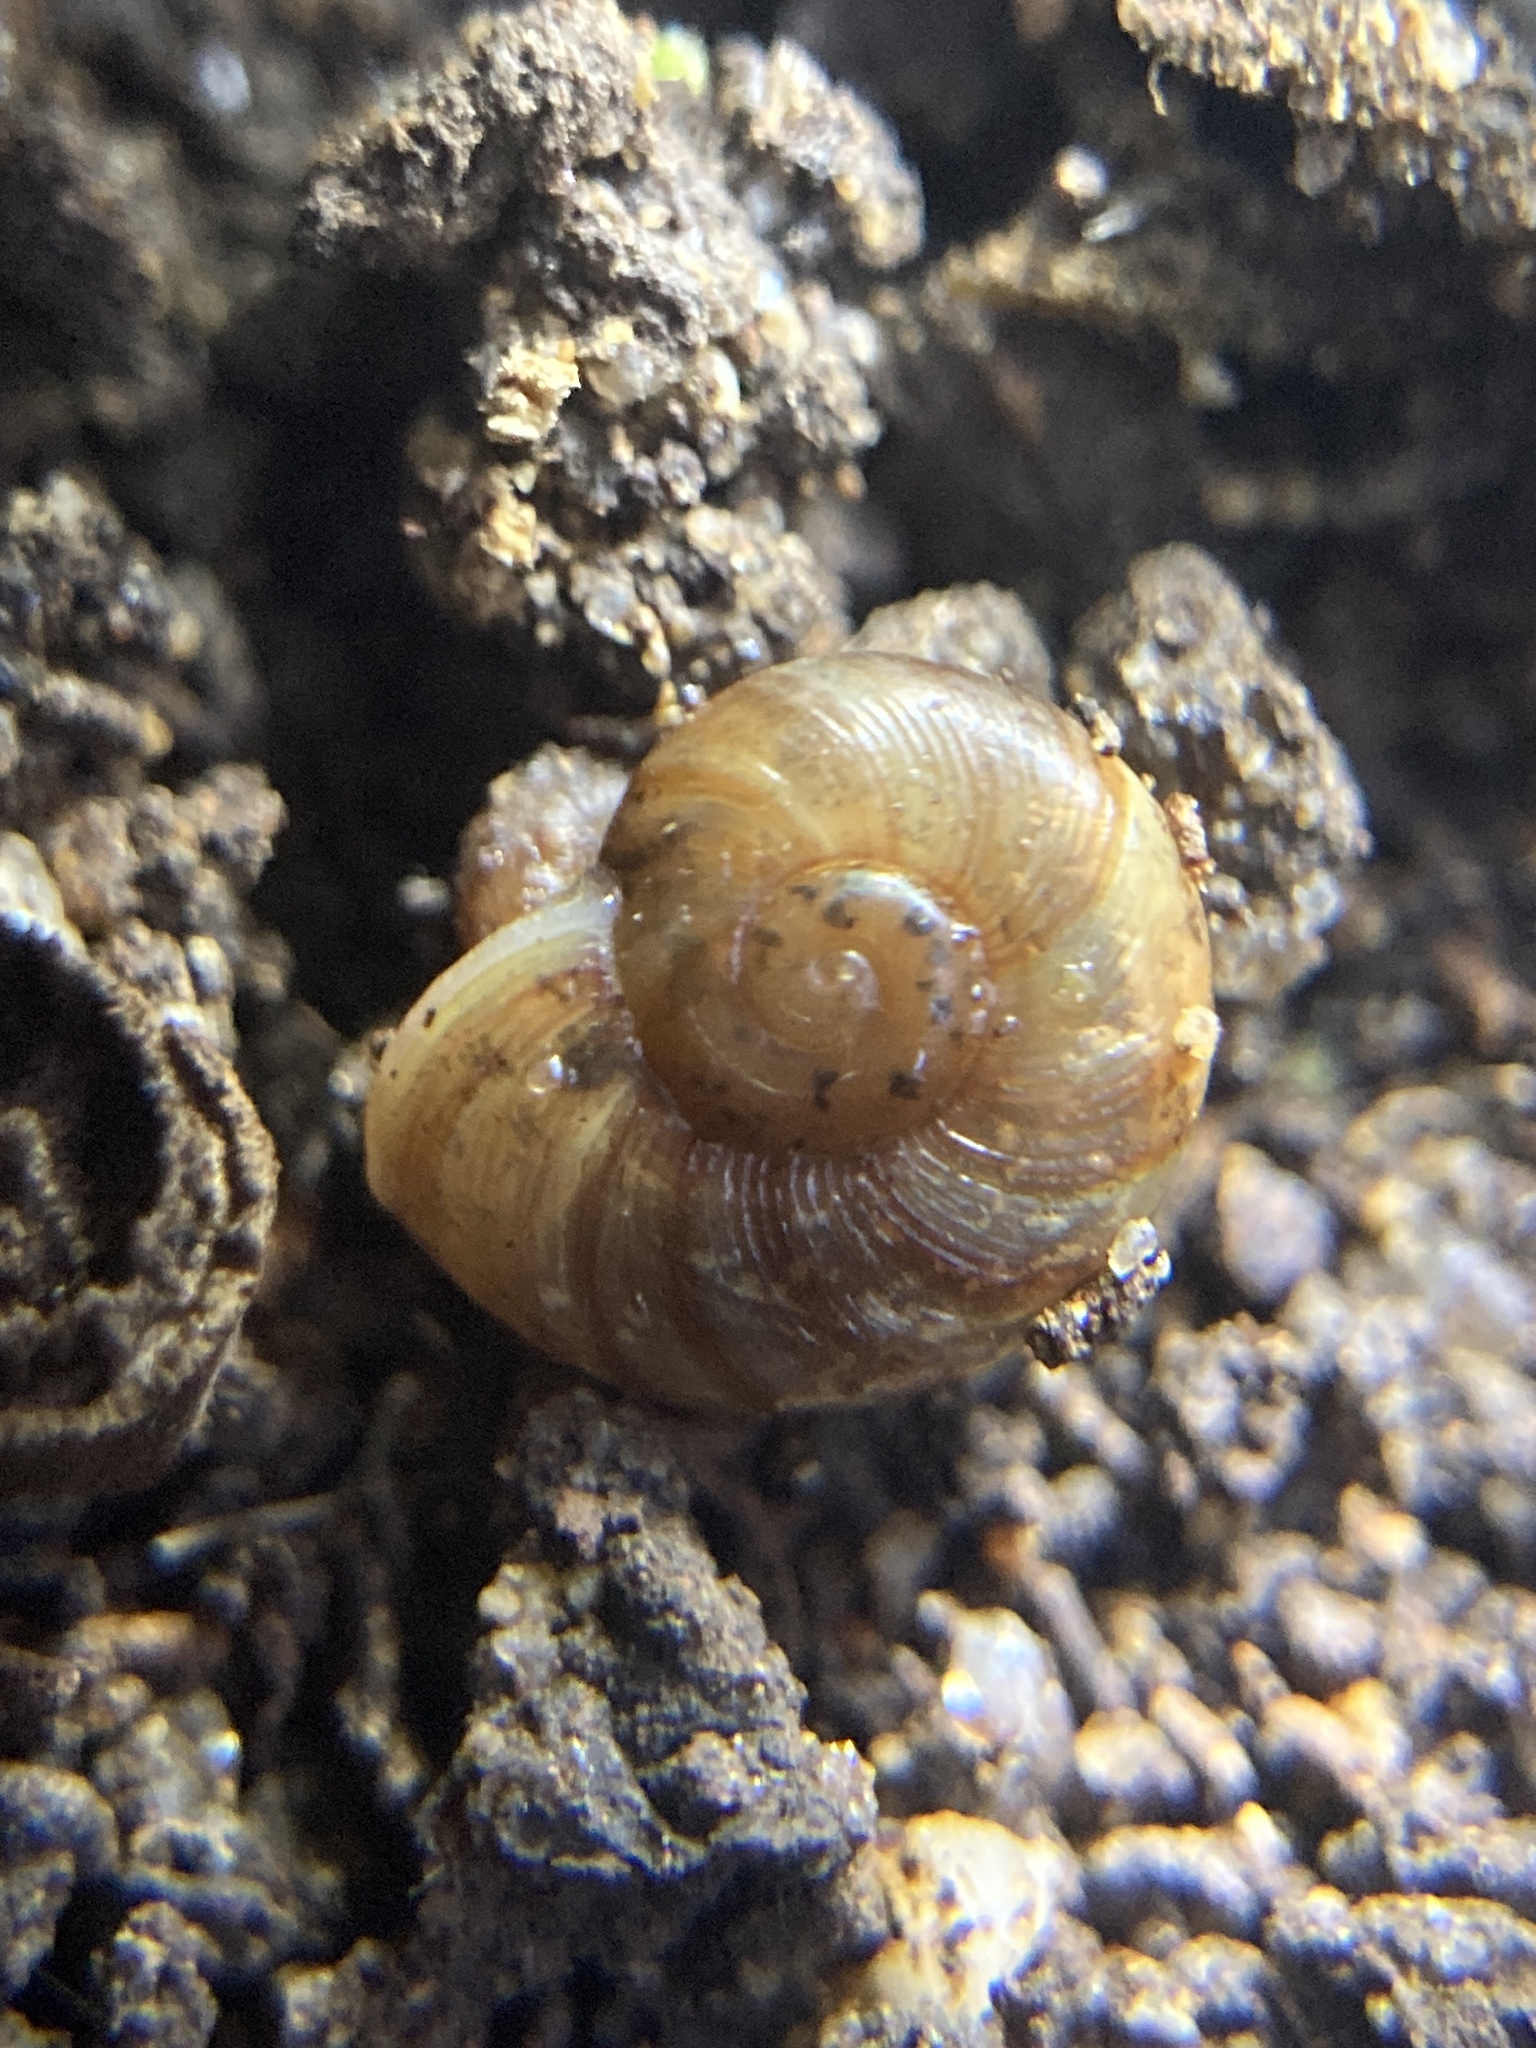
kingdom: Animalia
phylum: Mollusca
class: Gastropoda
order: Stylommatophora
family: Rhytididae
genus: Austrorhytida
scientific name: Austrorhytida capillacea
